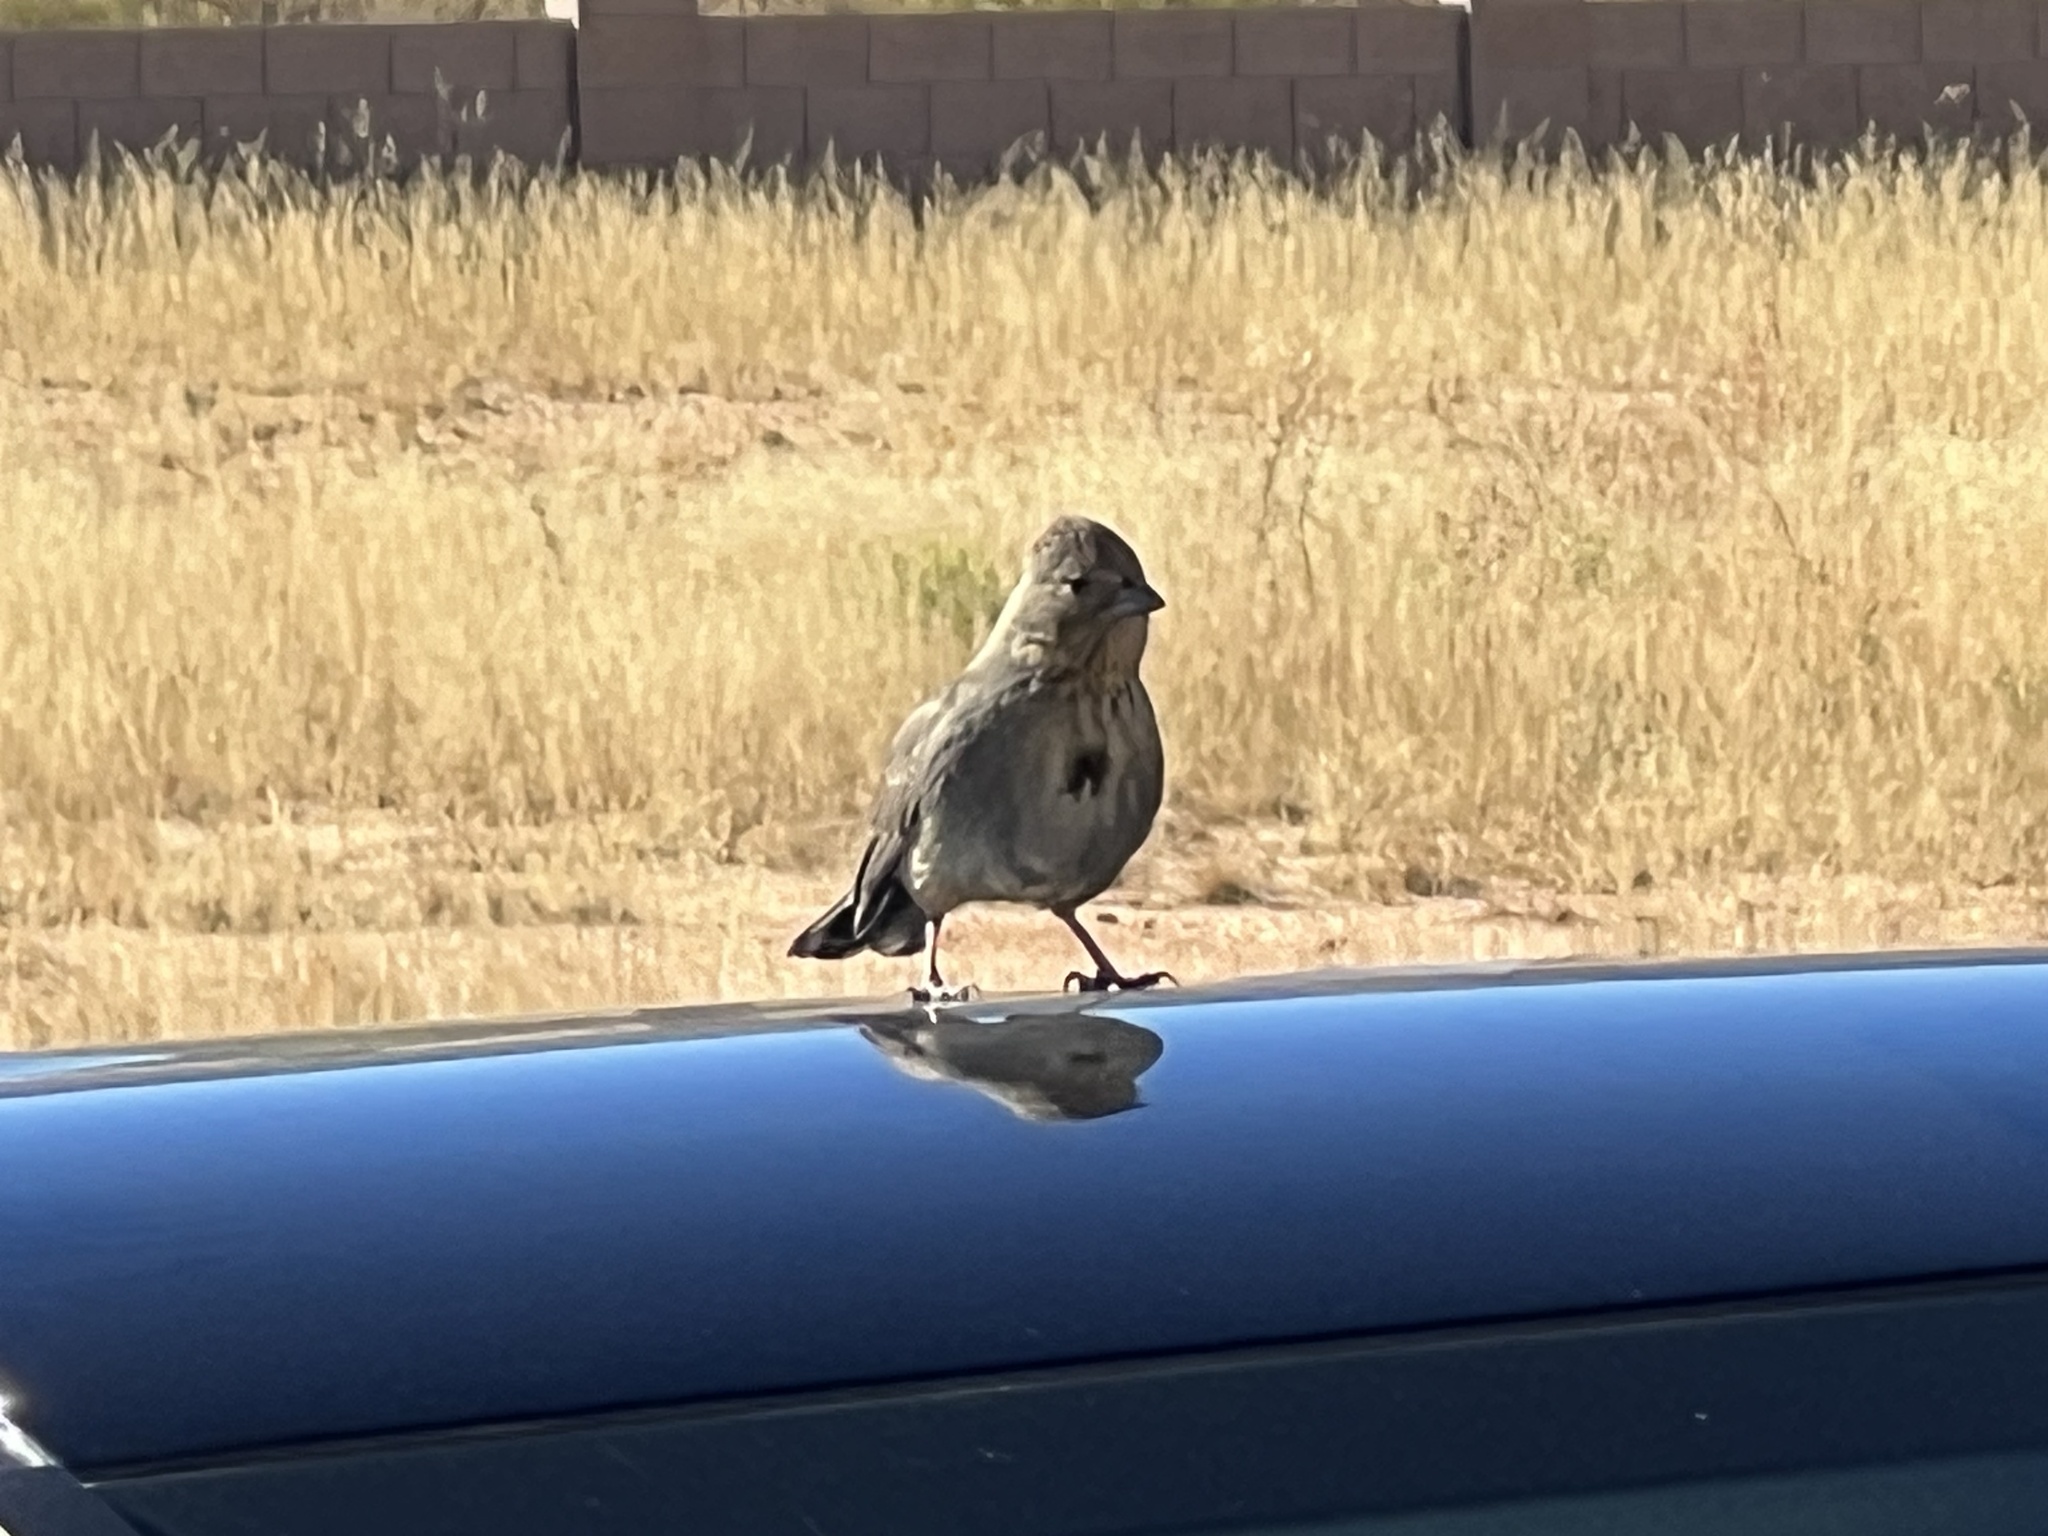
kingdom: Animalia
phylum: Chordata
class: Aves
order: Passeriformes
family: Passerellidae
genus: Melozone
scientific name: Melozone fusca
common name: Canyon towhee
